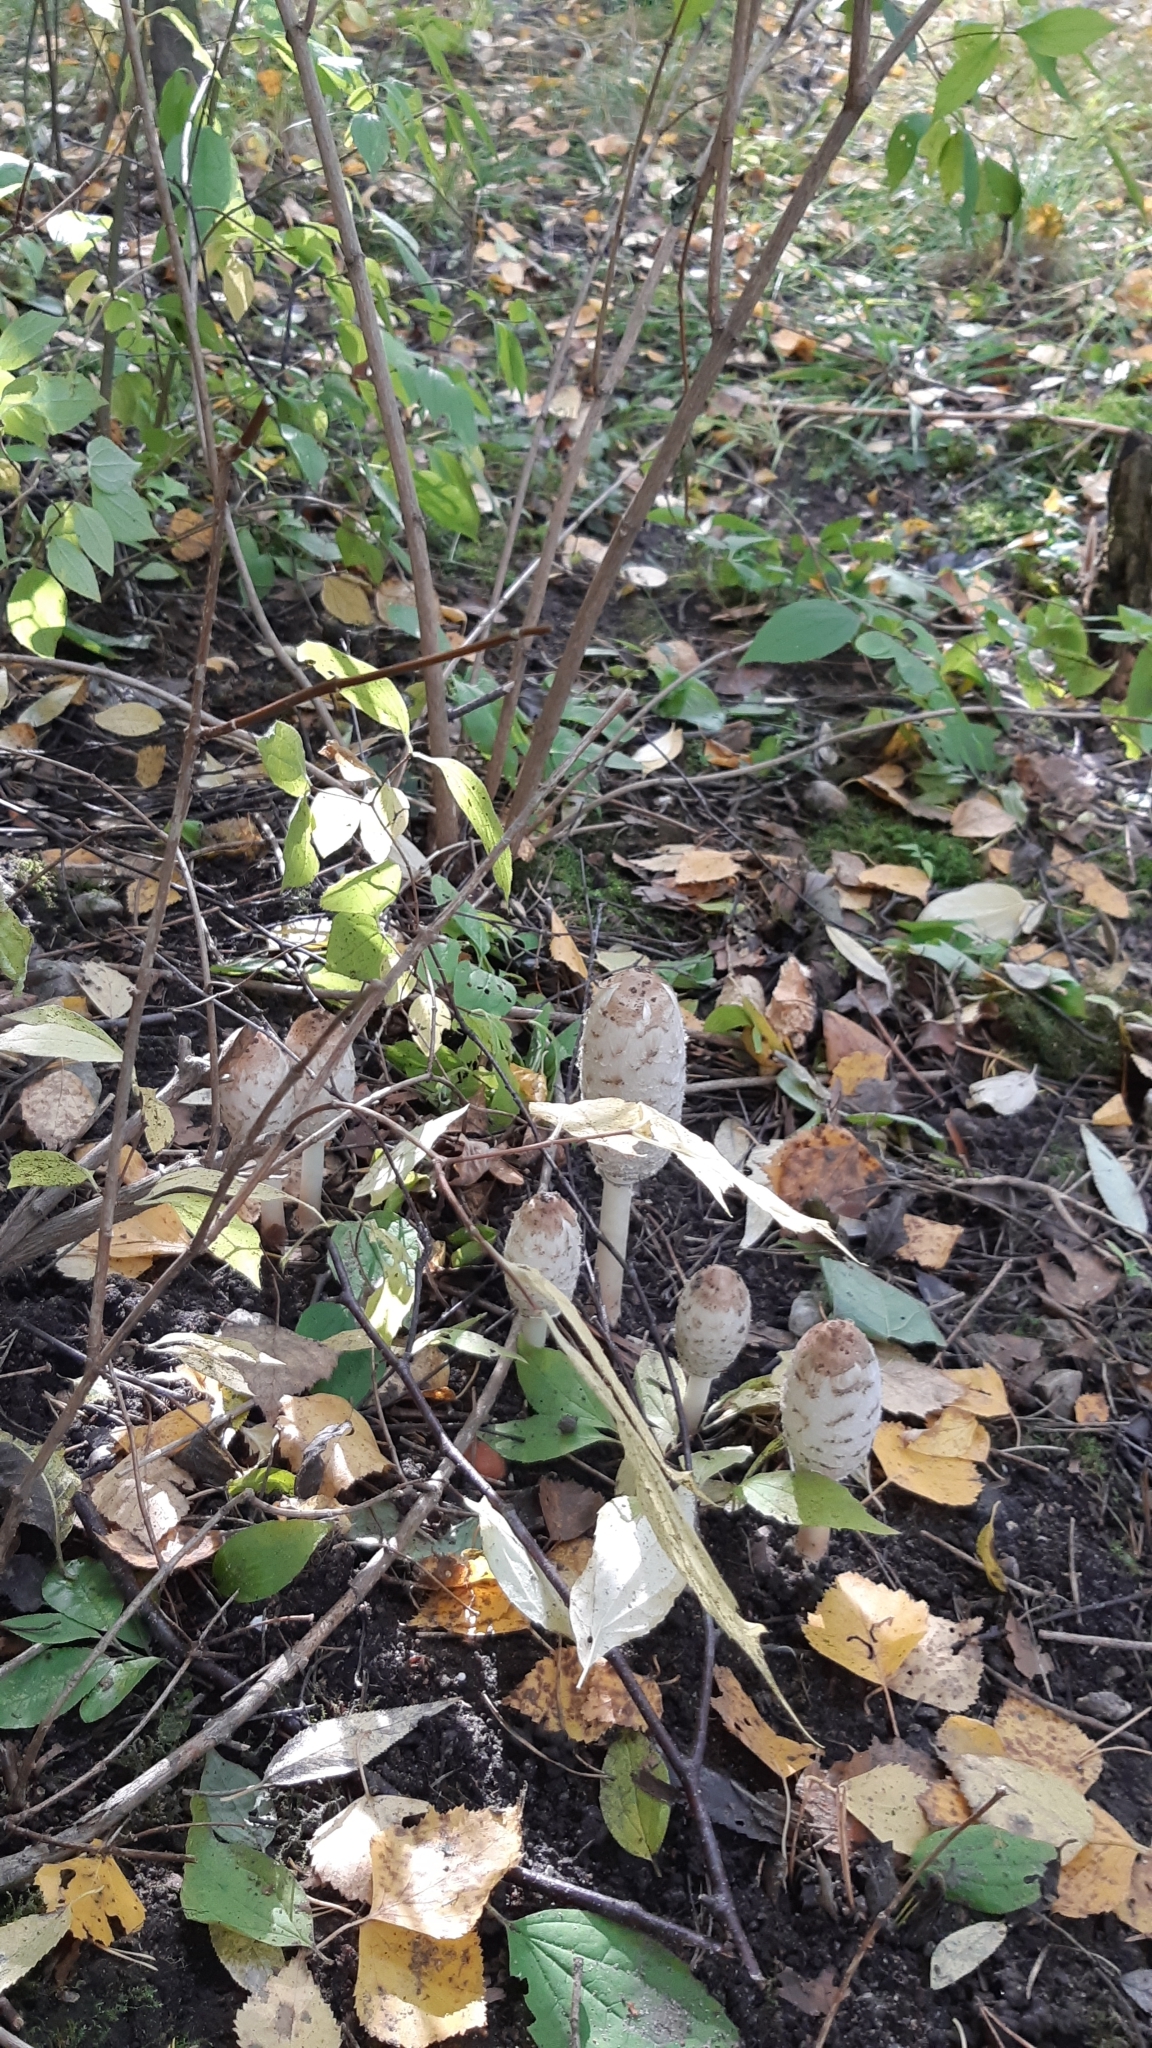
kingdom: Fungi
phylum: Basidiomycota
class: Agaricomycetes
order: Agaricales
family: Agaricaceae
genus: Coprinus
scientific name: Coprinus comatus
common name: Lawyer's wig
